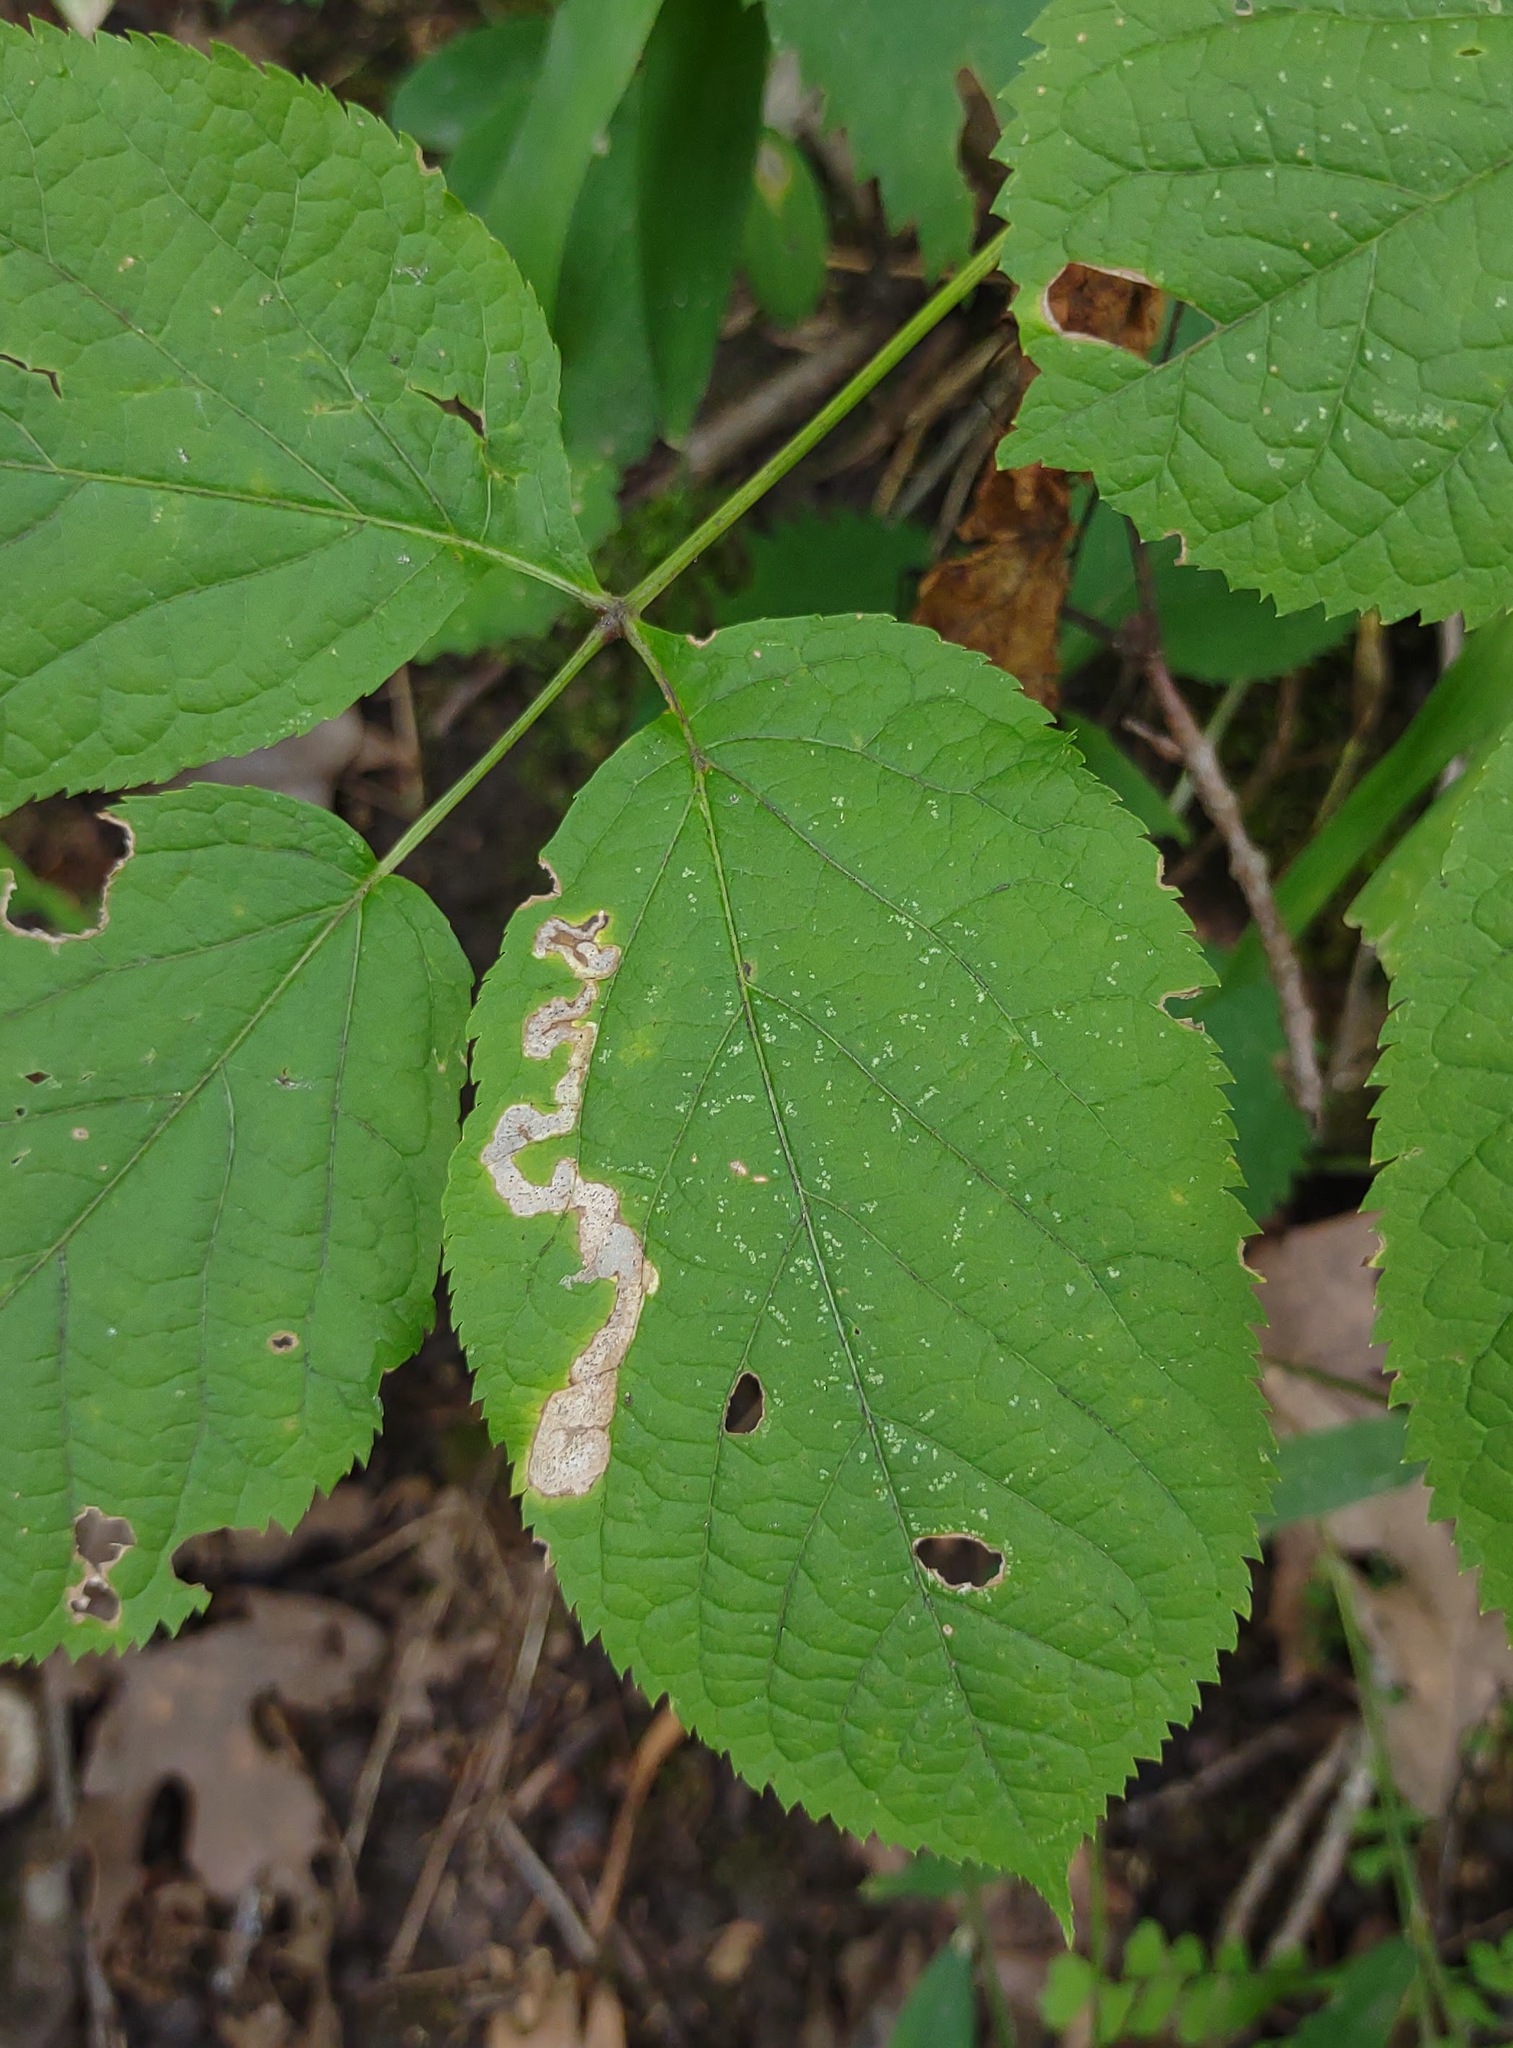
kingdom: Animalia
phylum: Arthropoda
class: Insecta
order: Diptera
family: Agromyzidae
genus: Phytomyza
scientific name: Phytomyza aralivora
